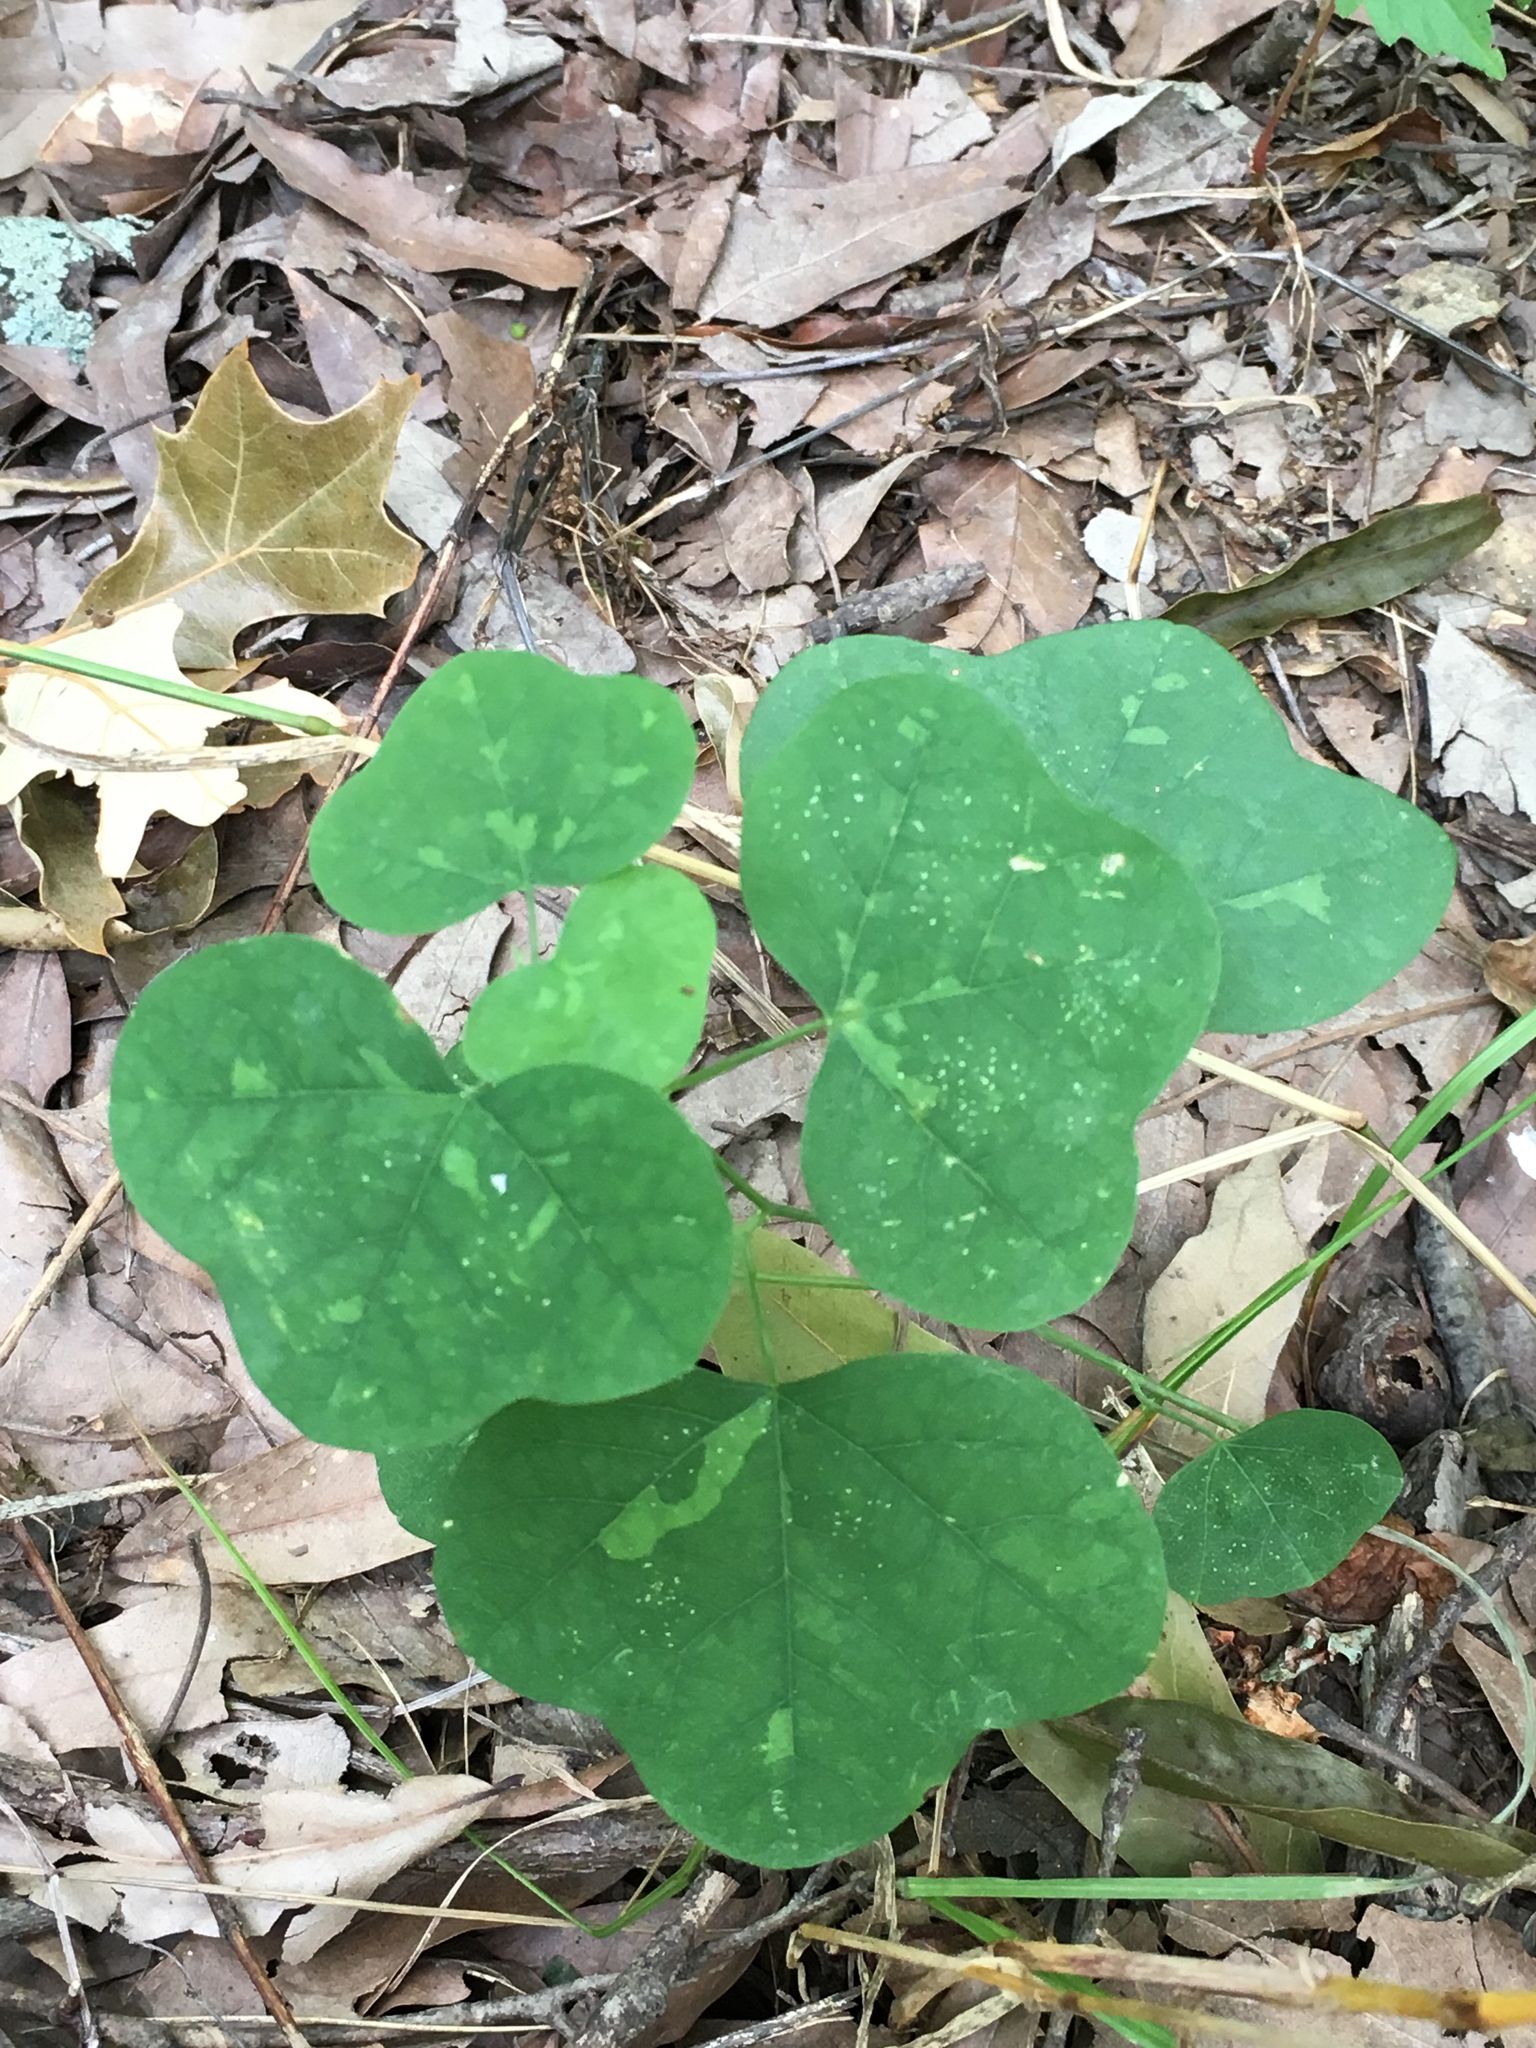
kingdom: Plantae
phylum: Tracheophyta
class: Magnoliopsida
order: Malpighiales
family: Passifloraceae
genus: Passiflora
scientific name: Passiflora lutea
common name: Yellow passionflower
